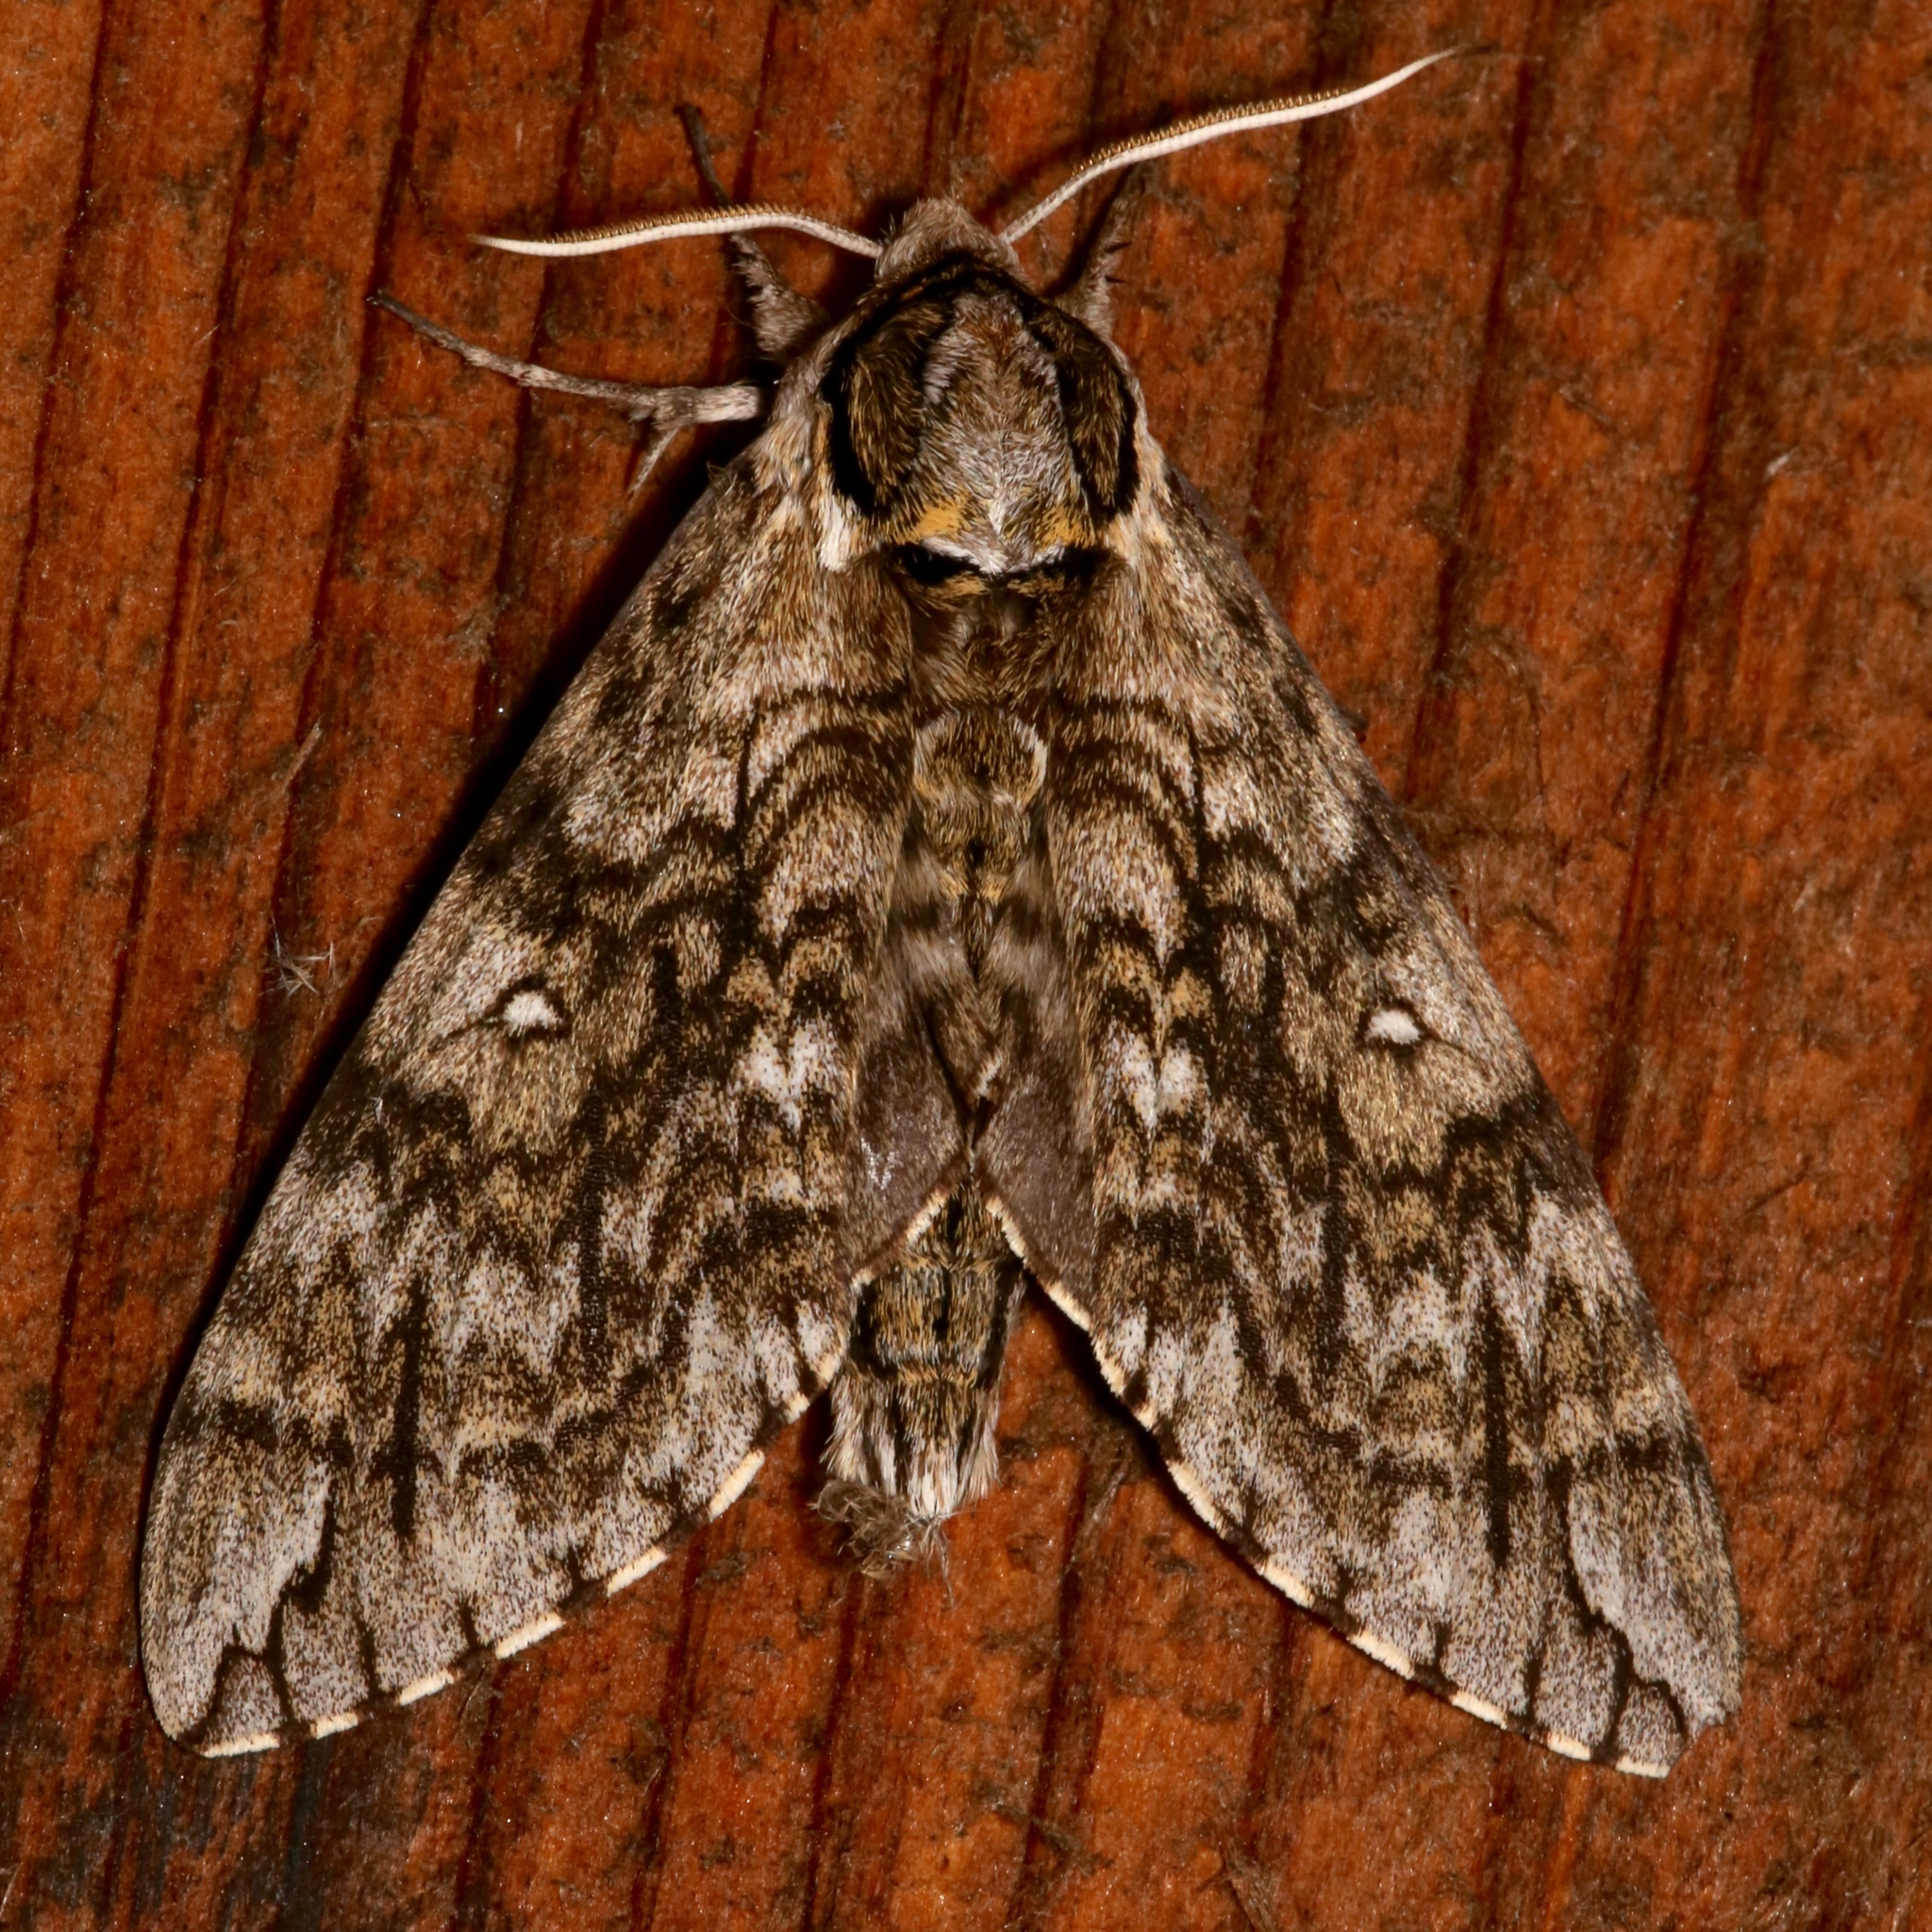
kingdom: Animalia
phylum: Arthropoda
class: Insecta
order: Lepidoptera
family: Sphingidae
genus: Ceratomia
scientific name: Ceratomia undulosa
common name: Waved sphinx
